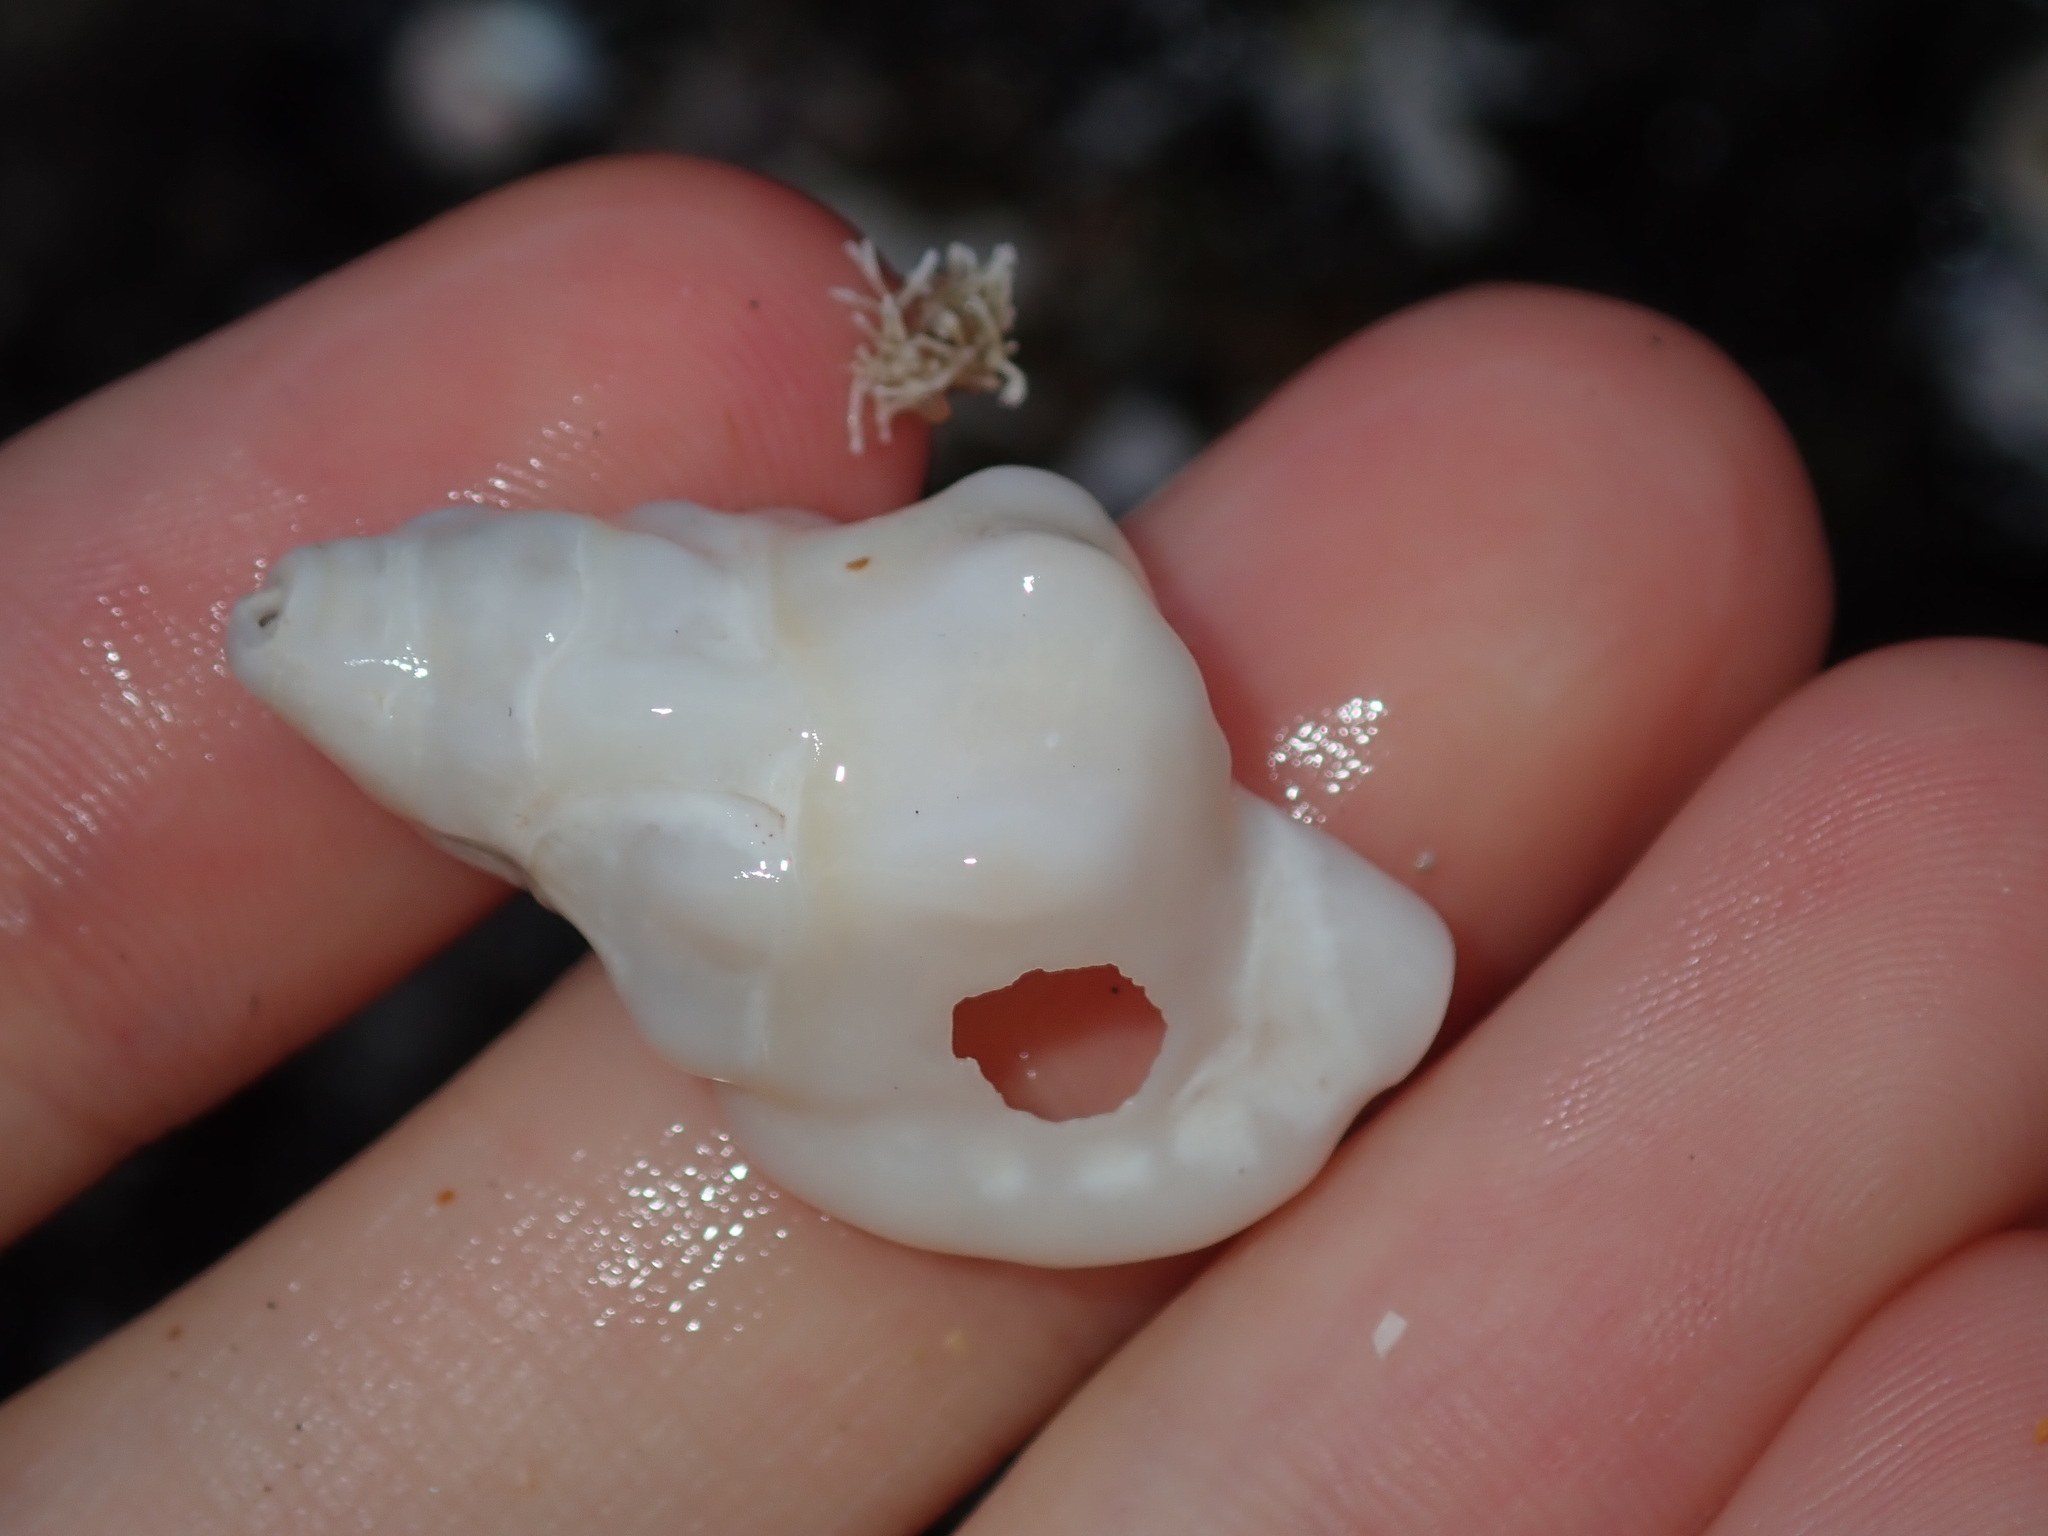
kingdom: Animalia
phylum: Mollusca
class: Gastropoda
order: Littorinimorpha
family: Cymatiidae
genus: Austrosassia
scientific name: Austrosassia parkinsonia
